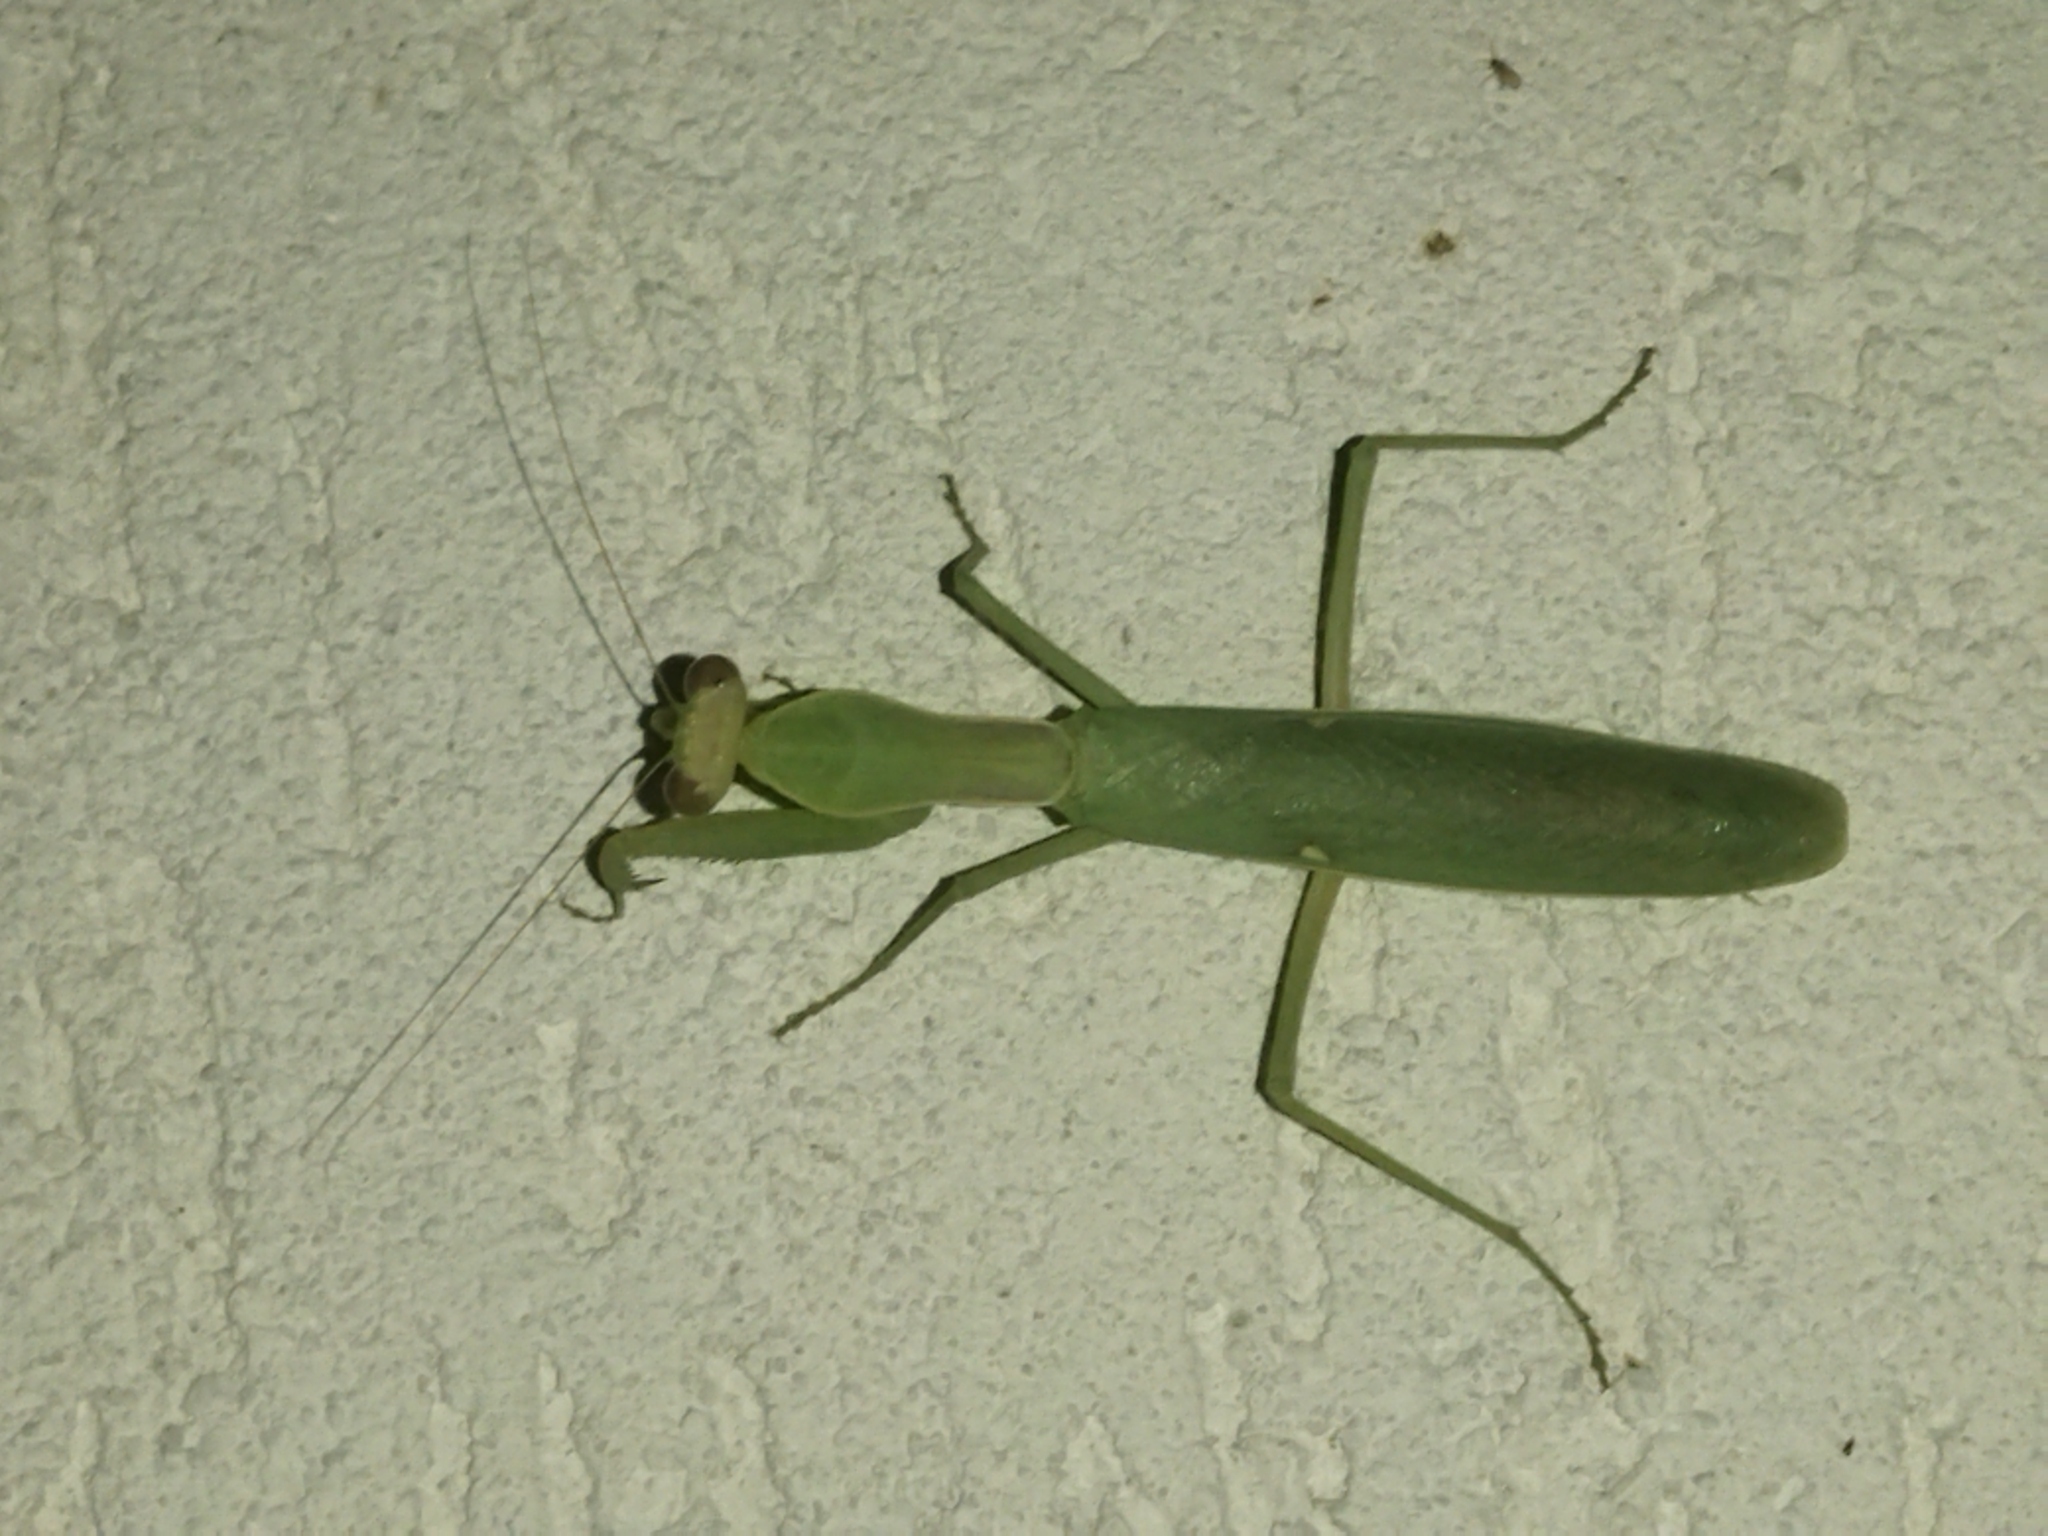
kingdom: Animalia
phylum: Arthropoda
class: Insecta
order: Mantodea
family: Mantidae
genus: Hierodula
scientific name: Hierodula transcaucasica
